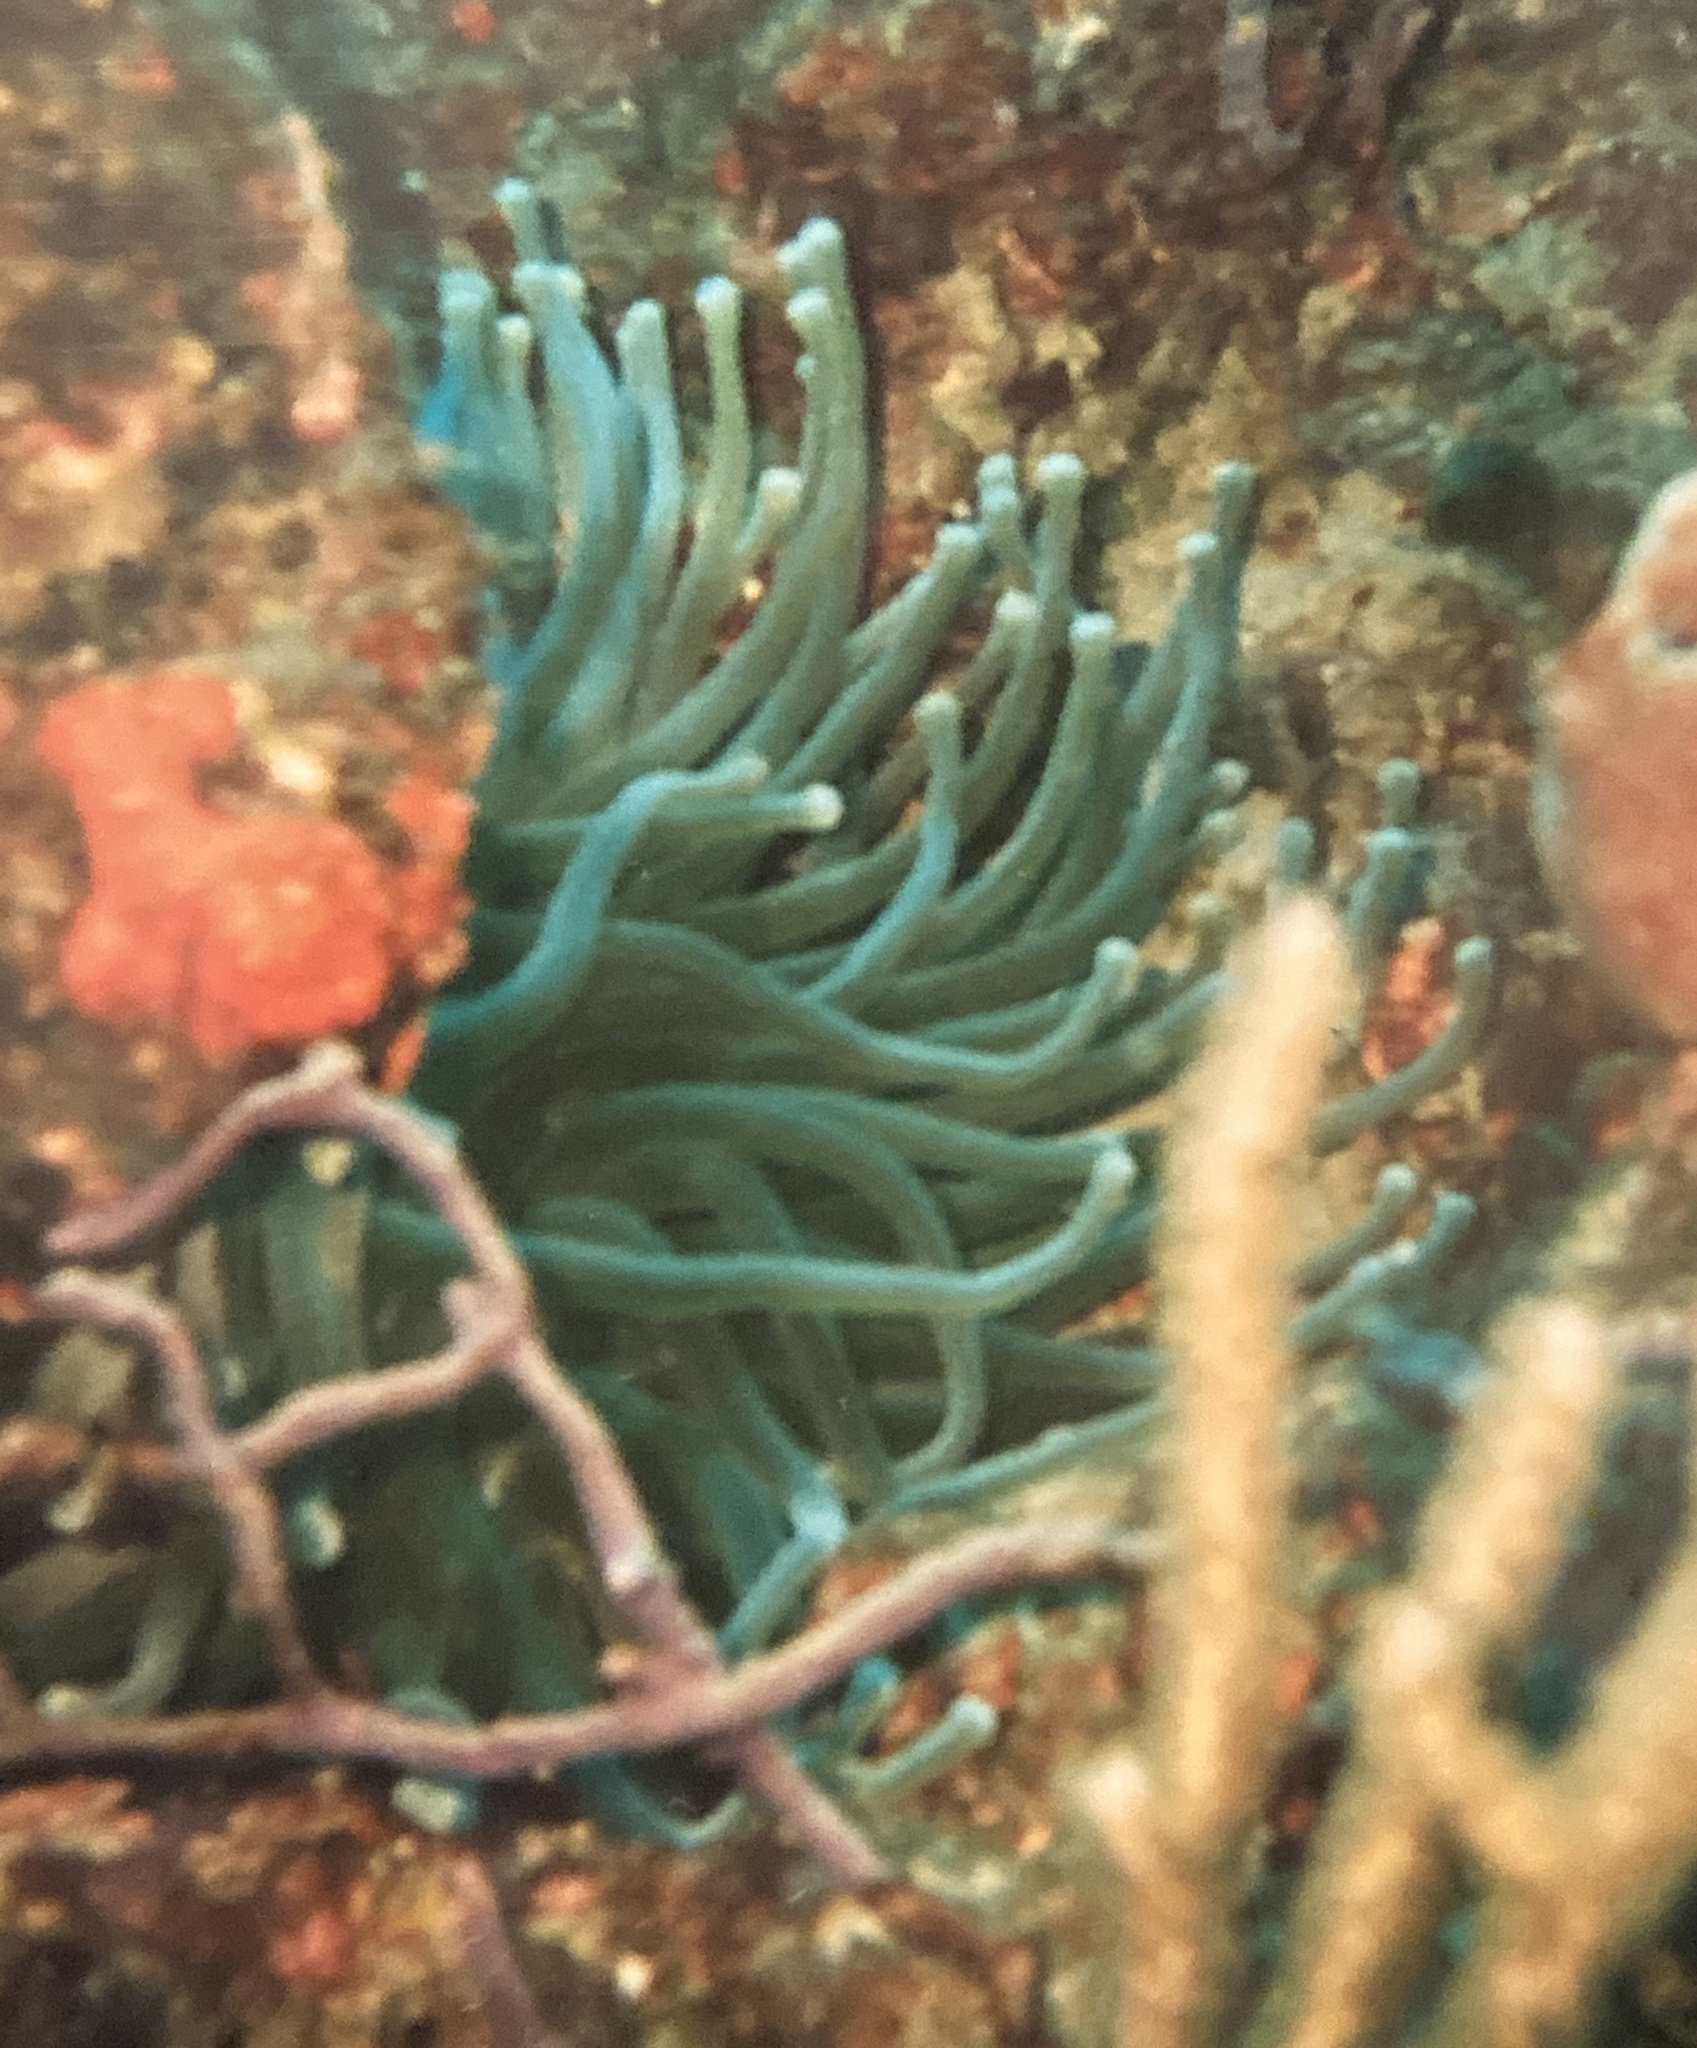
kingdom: Animalia
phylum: Cnidaria
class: Anthozoa
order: Actiniaria
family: Actiniidae
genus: Condylactis
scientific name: Condylactis gigantea
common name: Giant caribbean anemone
